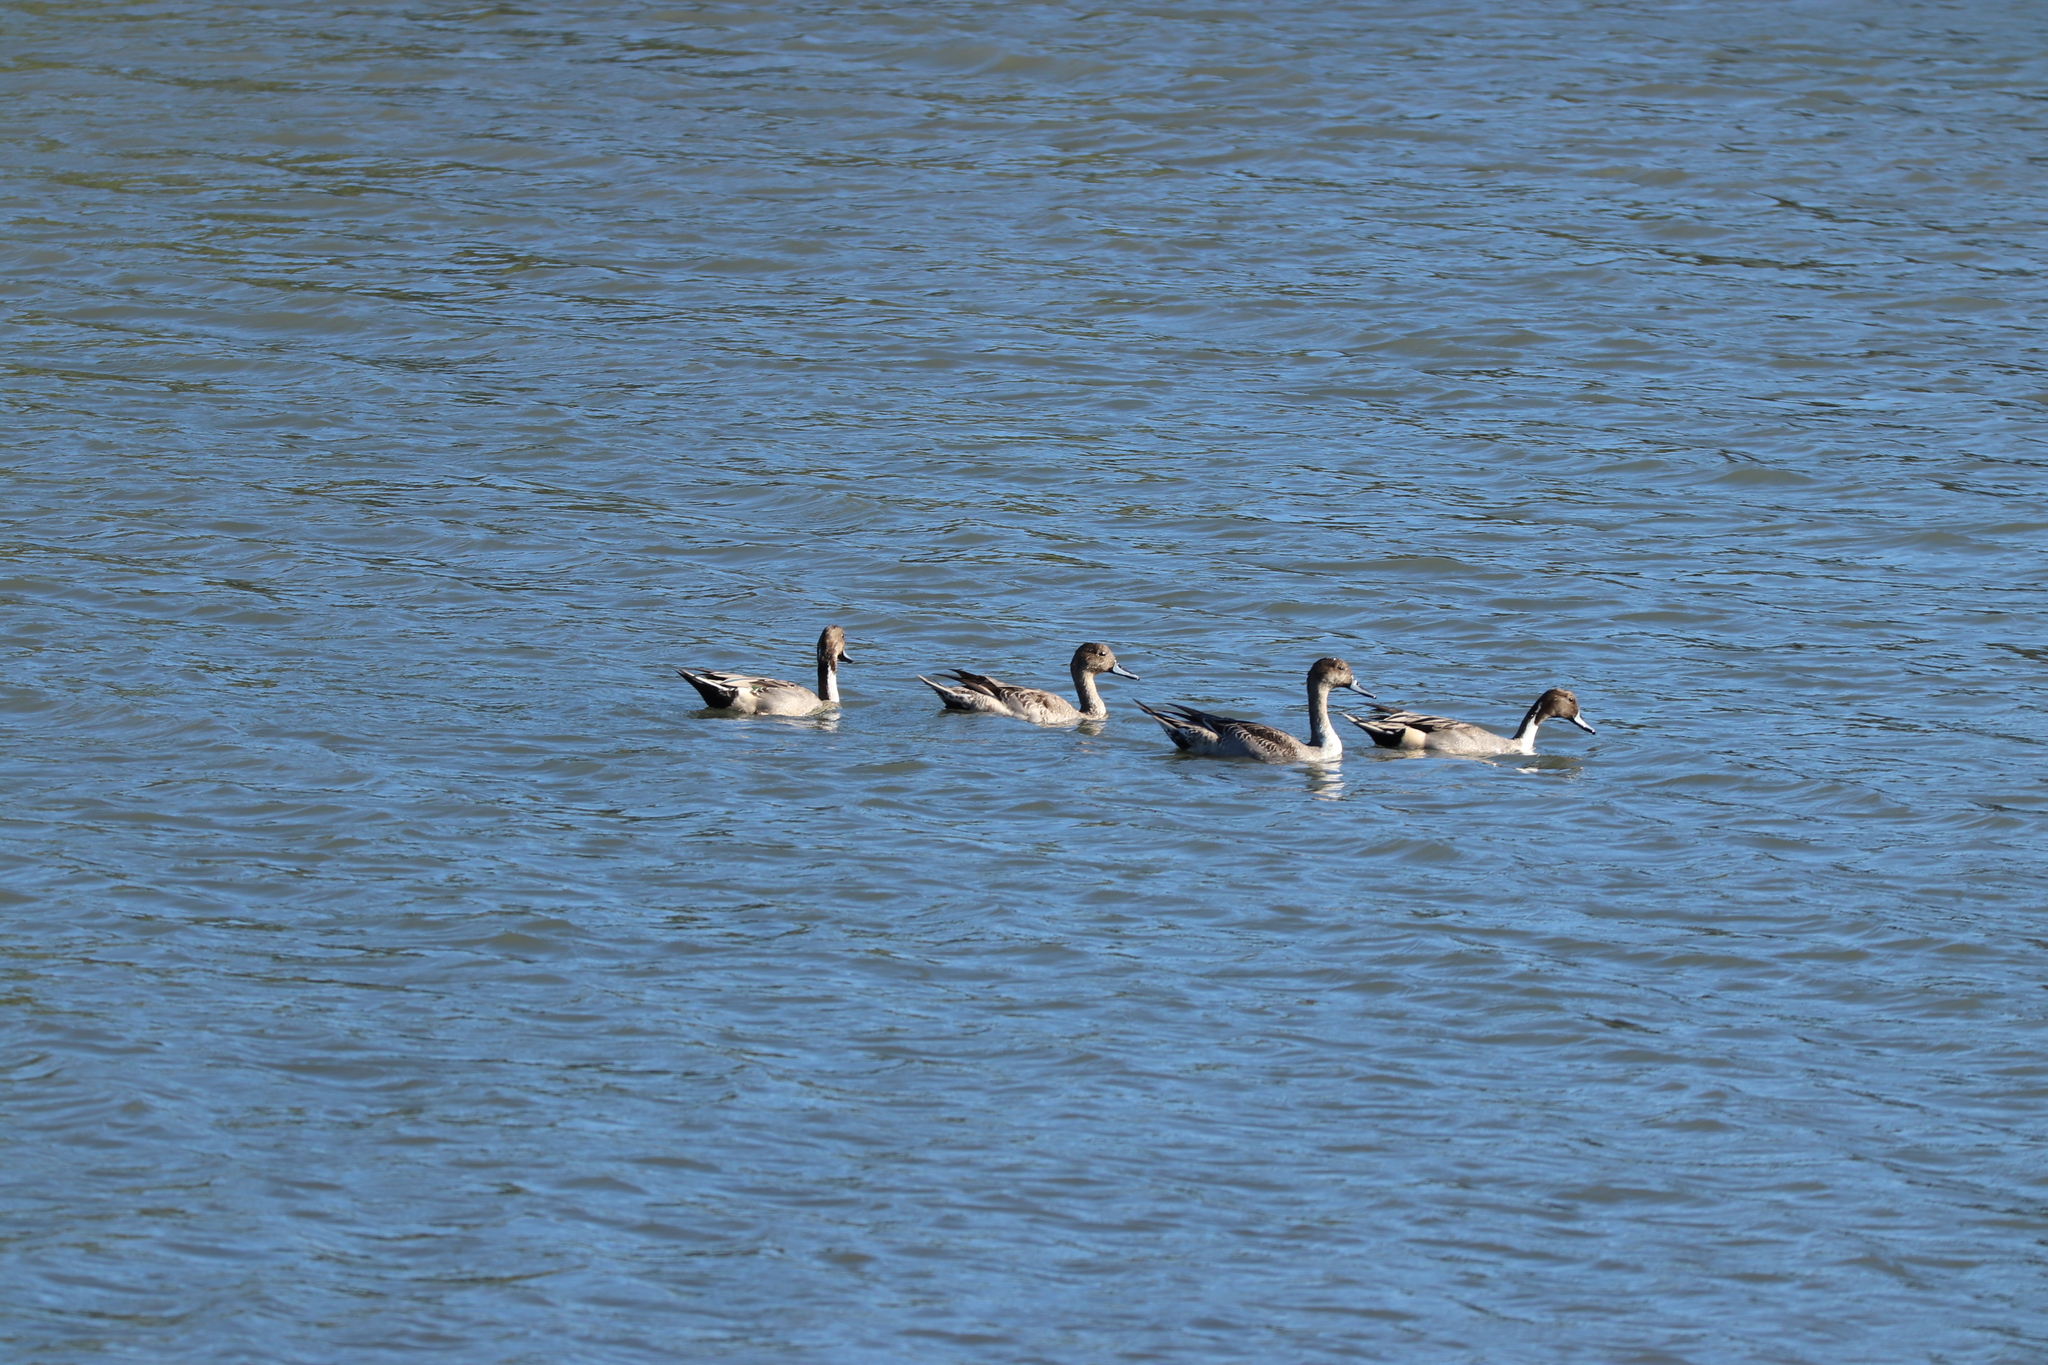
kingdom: Animalia
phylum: Chordata
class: Aves
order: Anseriformes
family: Anatidae
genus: Anas
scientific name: Anas acuta
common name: Northern pintail
